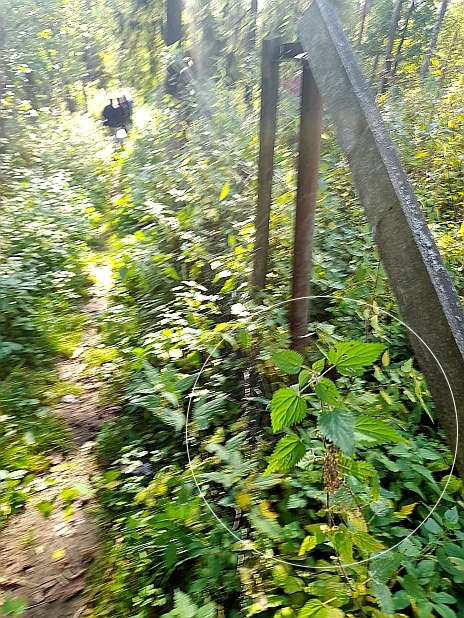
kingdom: Plantae
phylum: Tracheophyta
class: Magnoliopsida
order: Rosales
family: Urticaceae
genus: Urtica
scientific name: Urtica dioica
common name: Common nettle
